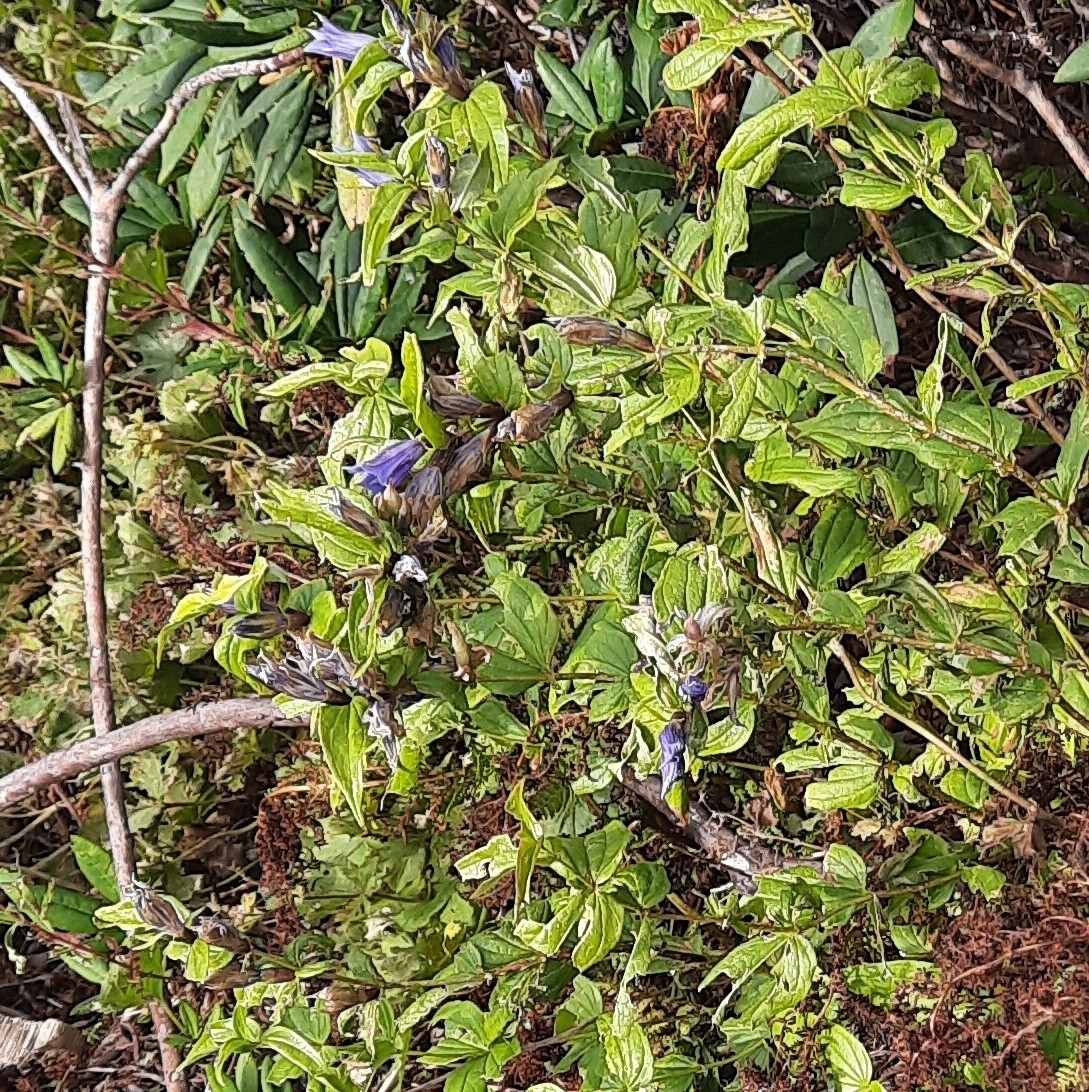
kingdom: Plantae
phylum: Tracheophyta
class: Magnoliopsida
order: Gentianales
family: Gentianaceae
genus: Gentiana
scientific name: Gentiana septemfida
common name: Crested gentian
